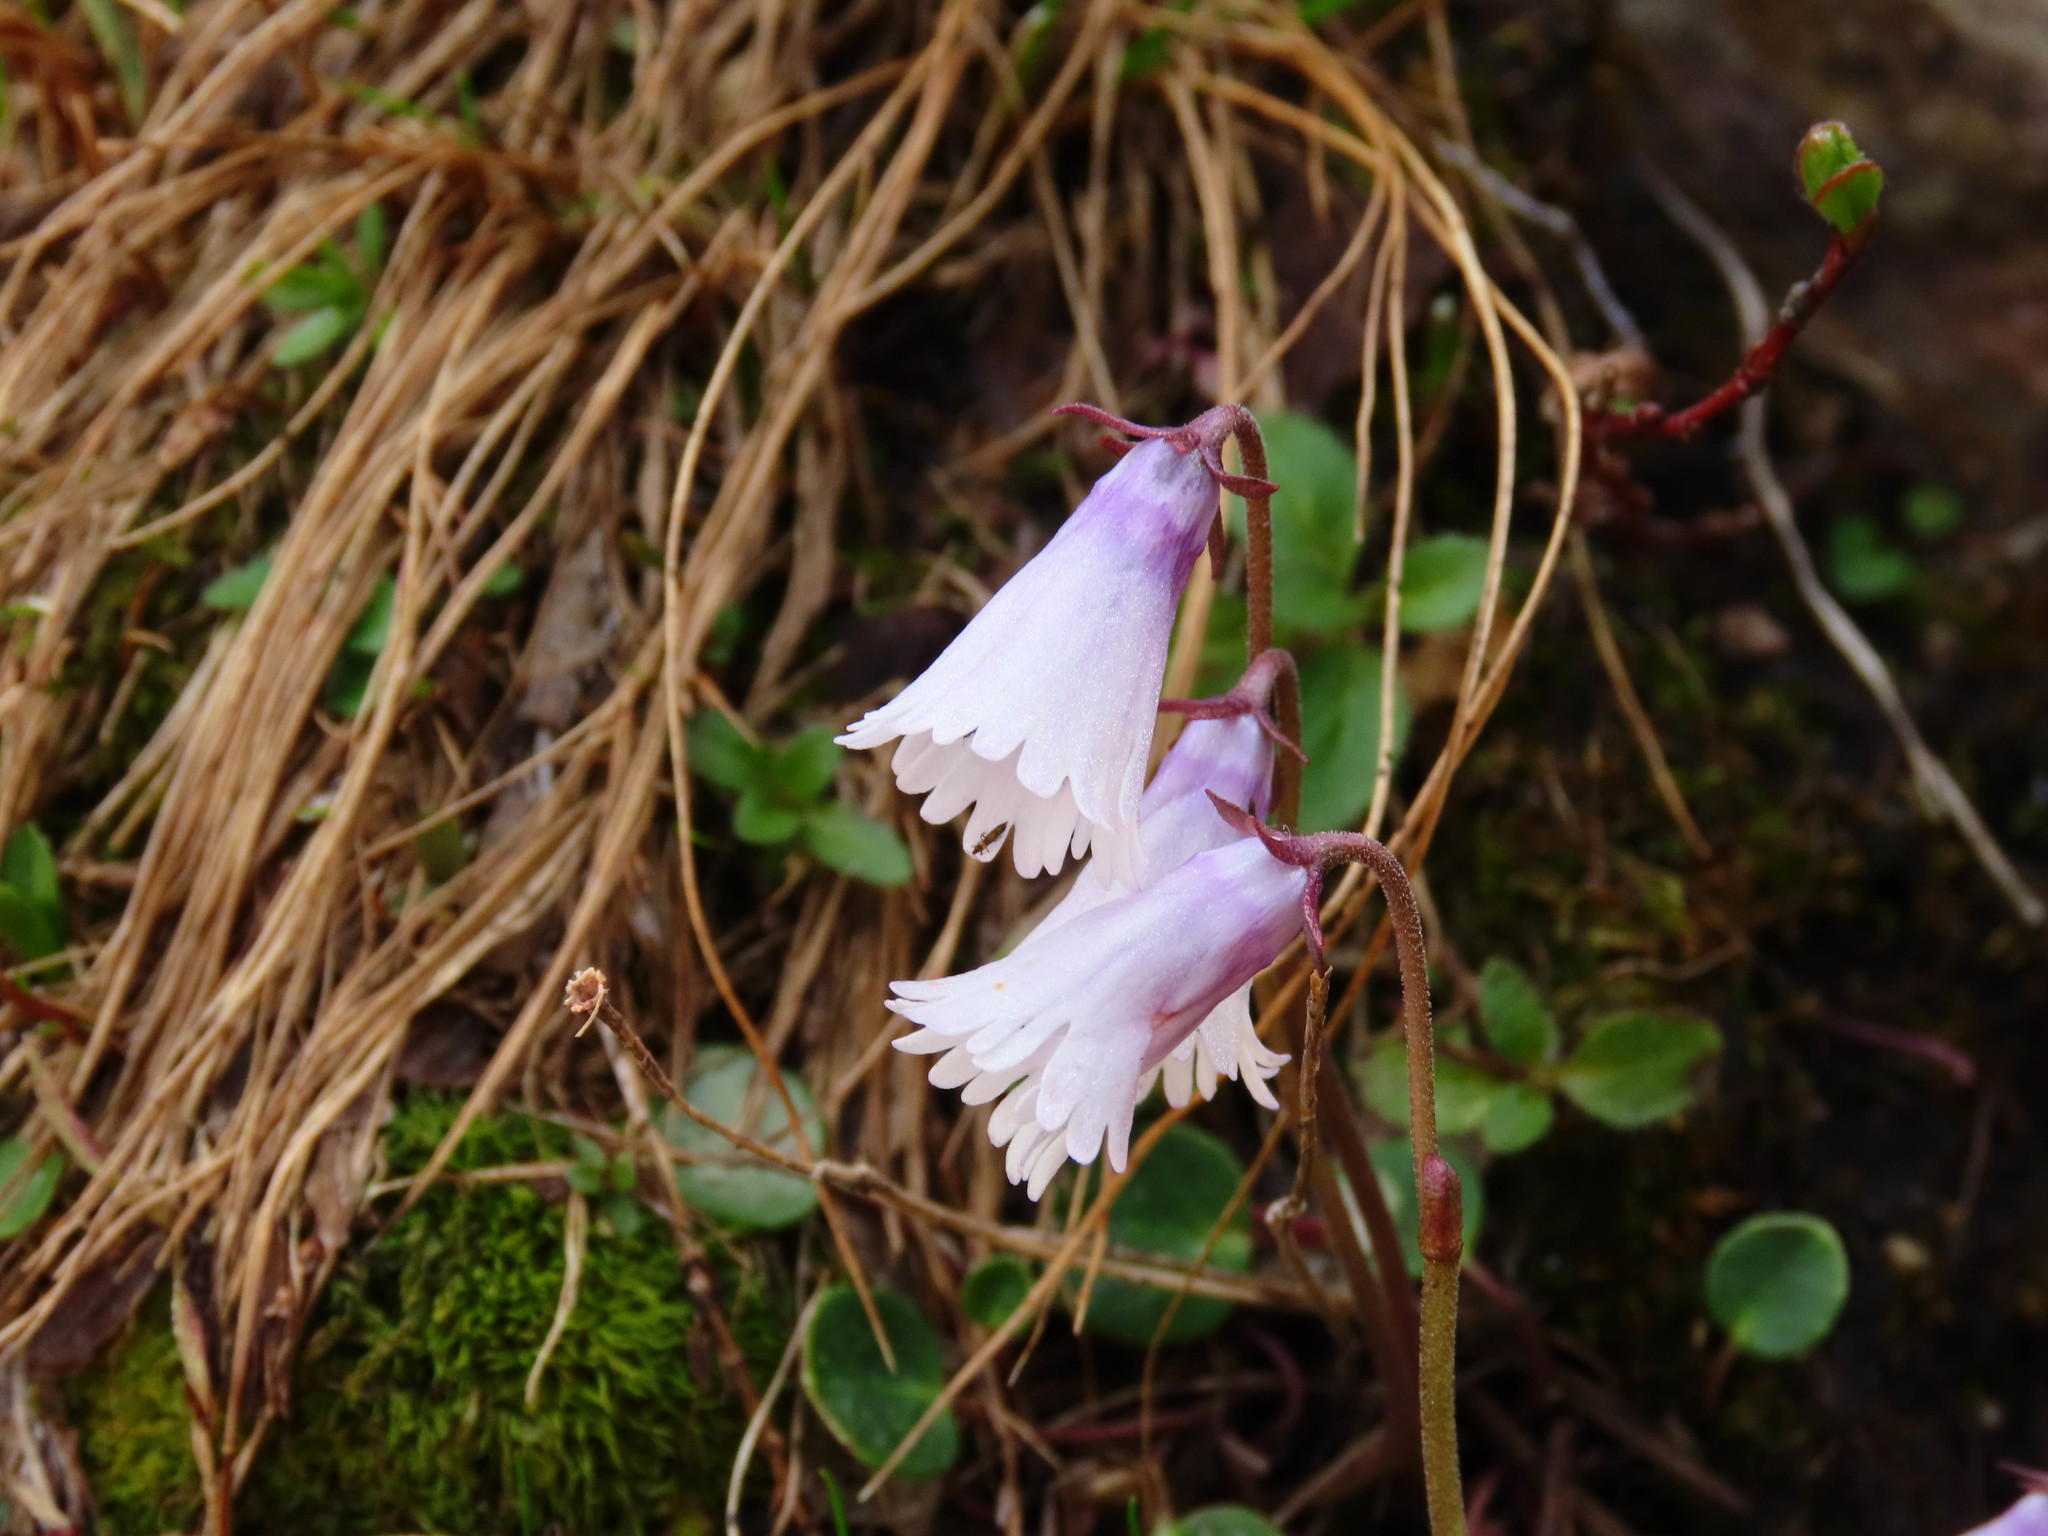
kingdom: Plantae
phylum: Tracheophyta
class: Magnoliopsida
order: Ericales
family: Primulaceae
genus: Soldanella
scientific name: Soldanella minima
